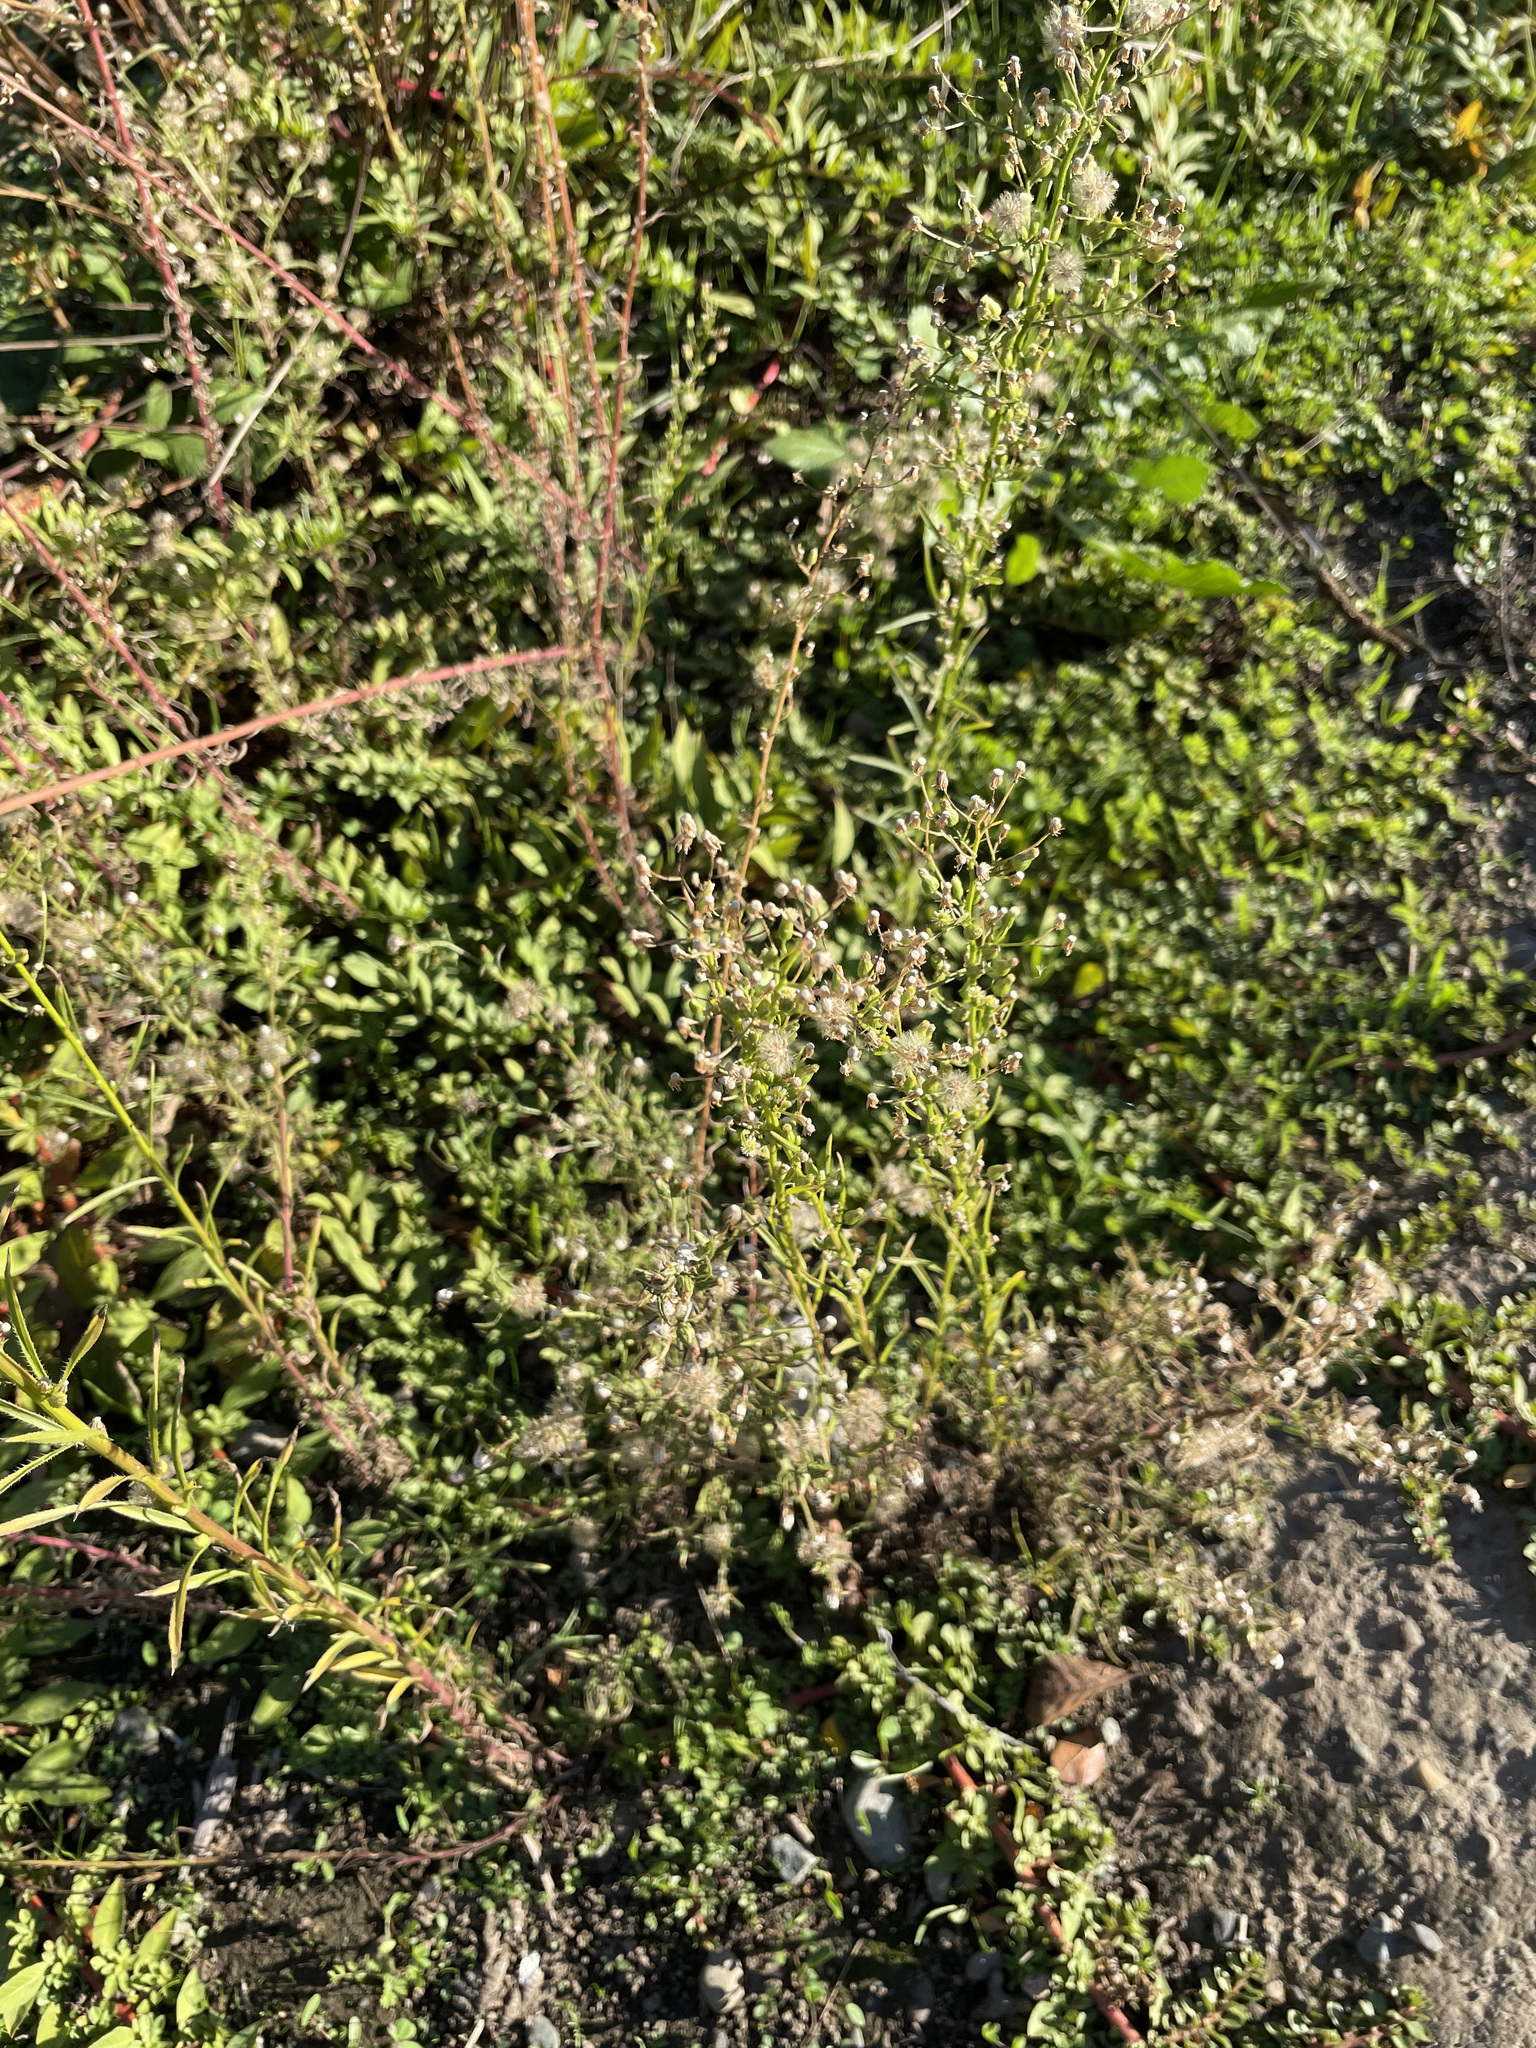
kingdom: Plantae
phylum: Tracheophyta
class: Magnoliopsida
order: Asterales
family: Asteraceae
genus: Erigeron
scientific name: Erigeron canadensis
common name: Canadian fleabane
